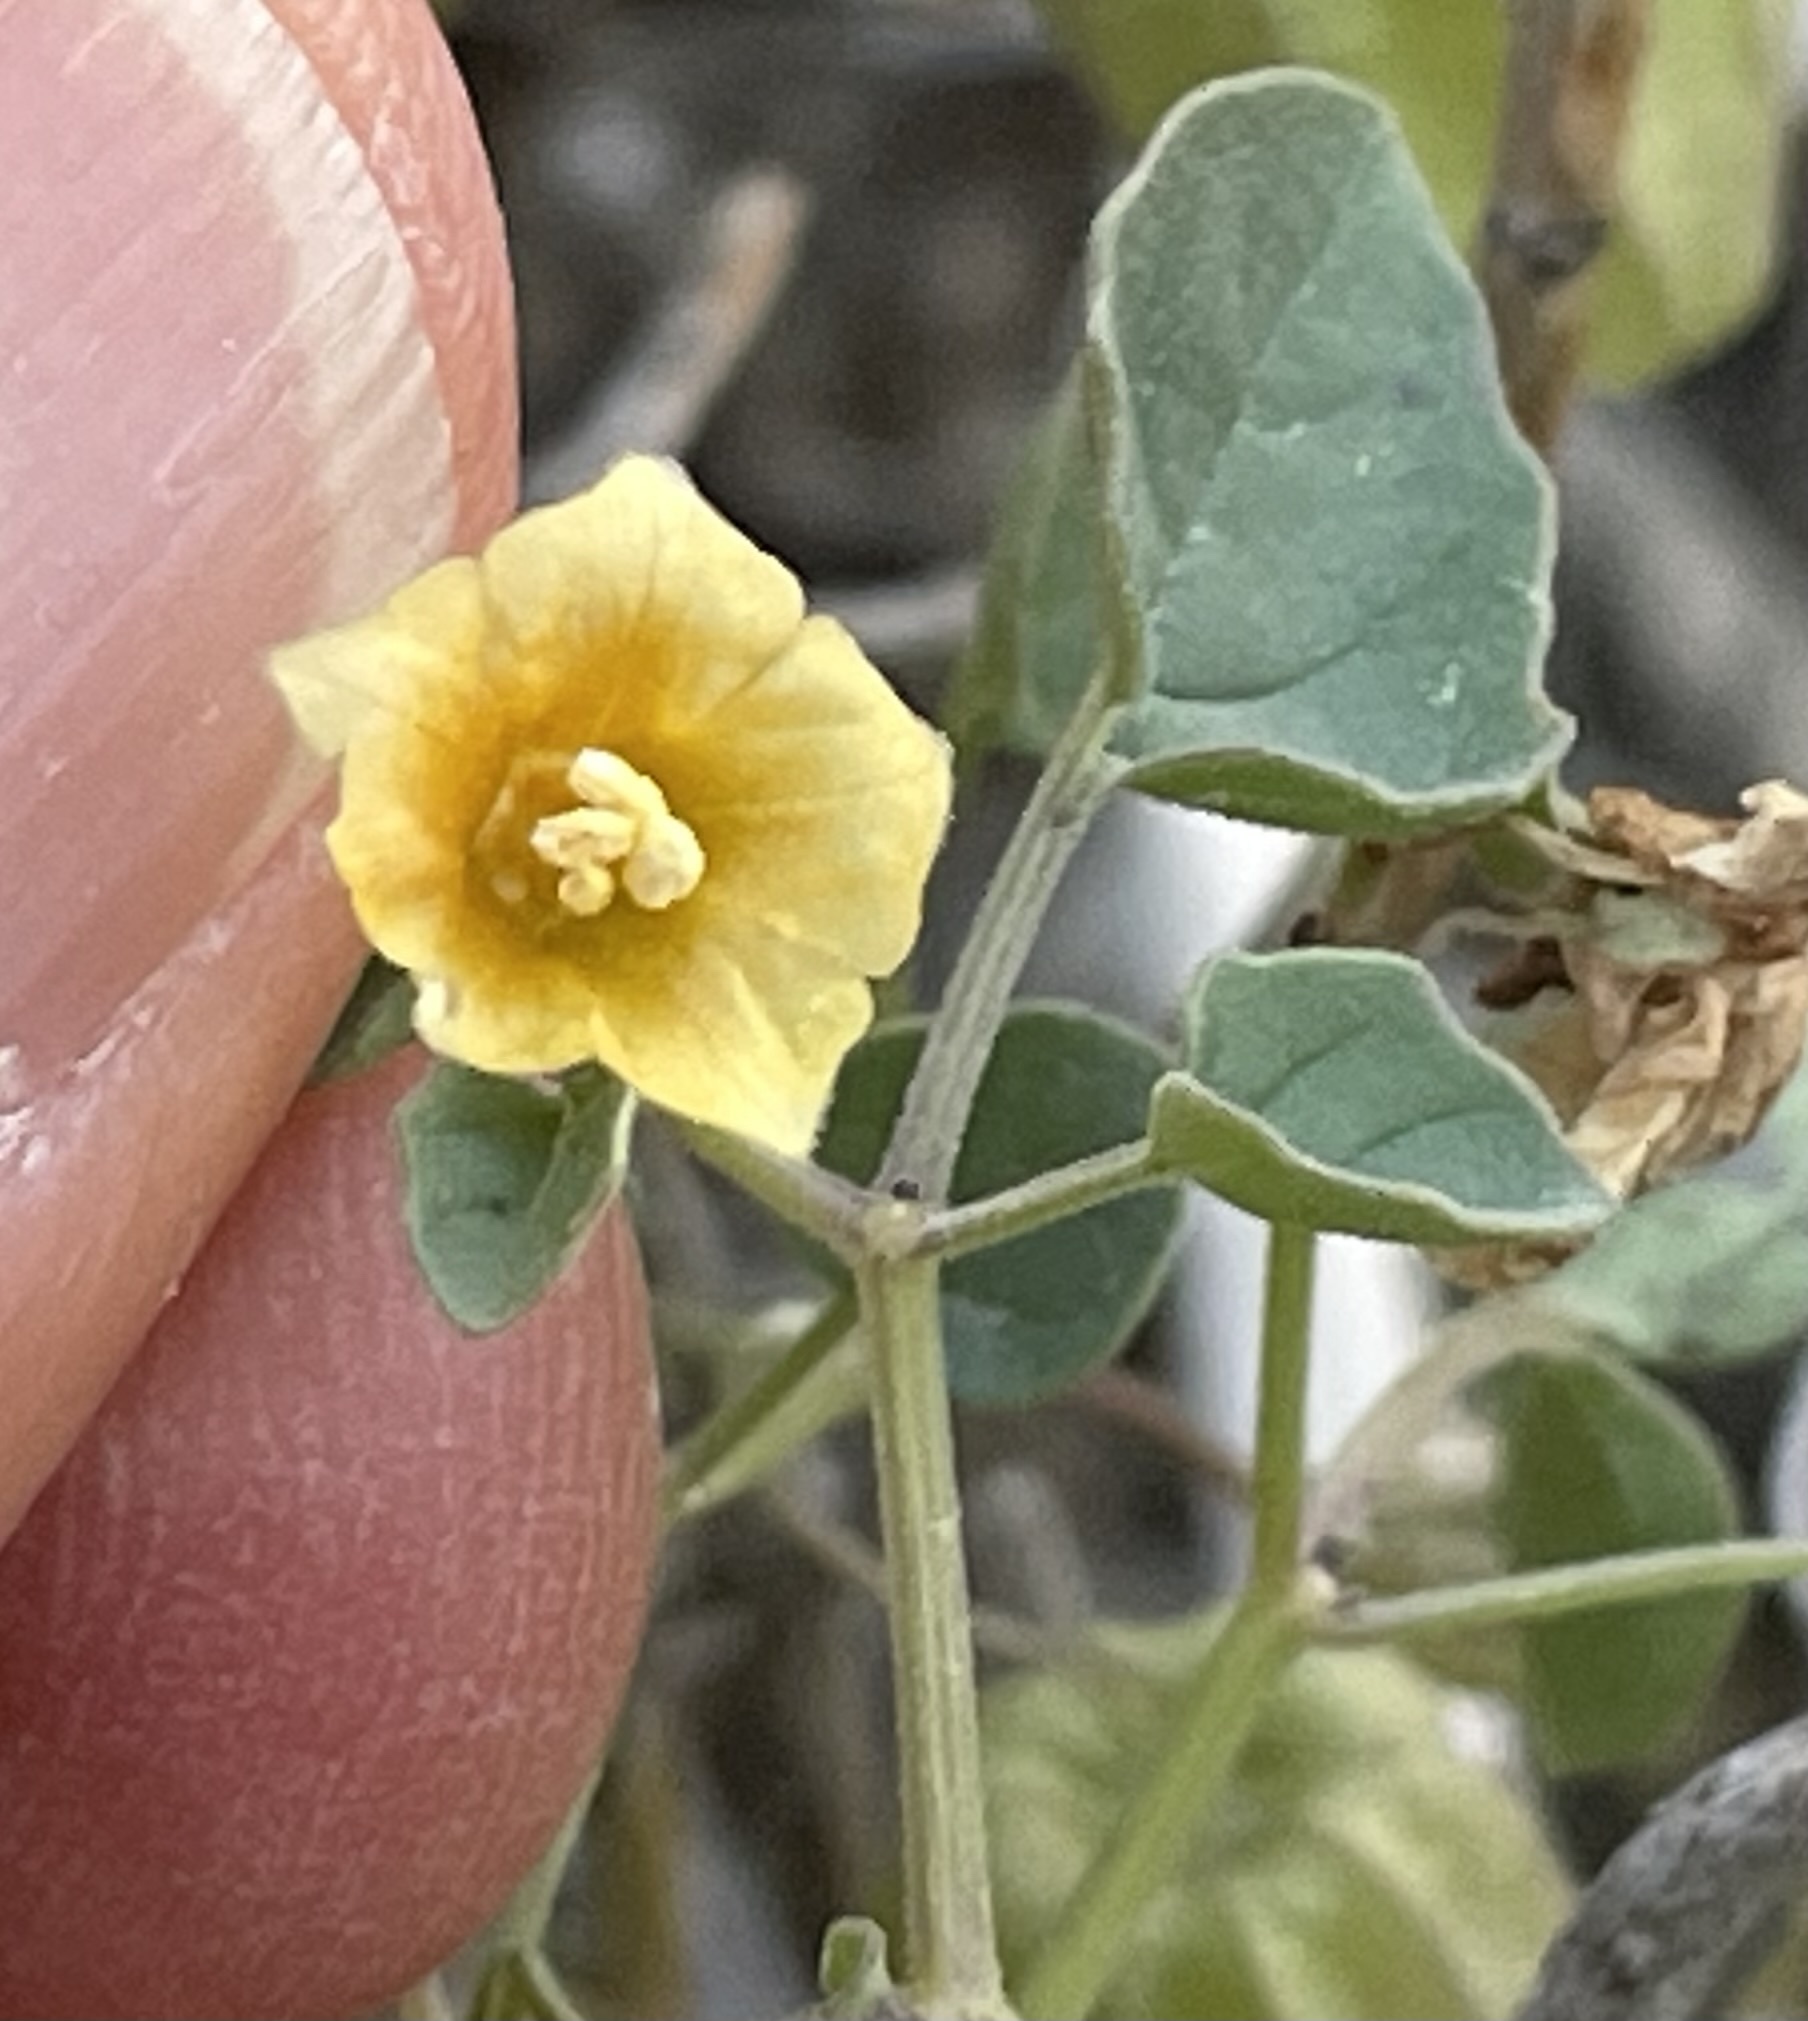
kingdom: Plantae
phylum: Tracheophyta
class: Magnoliopsida
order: Solanales
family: Solanaceae
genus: Physalis
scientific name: Physalis crassifolia
